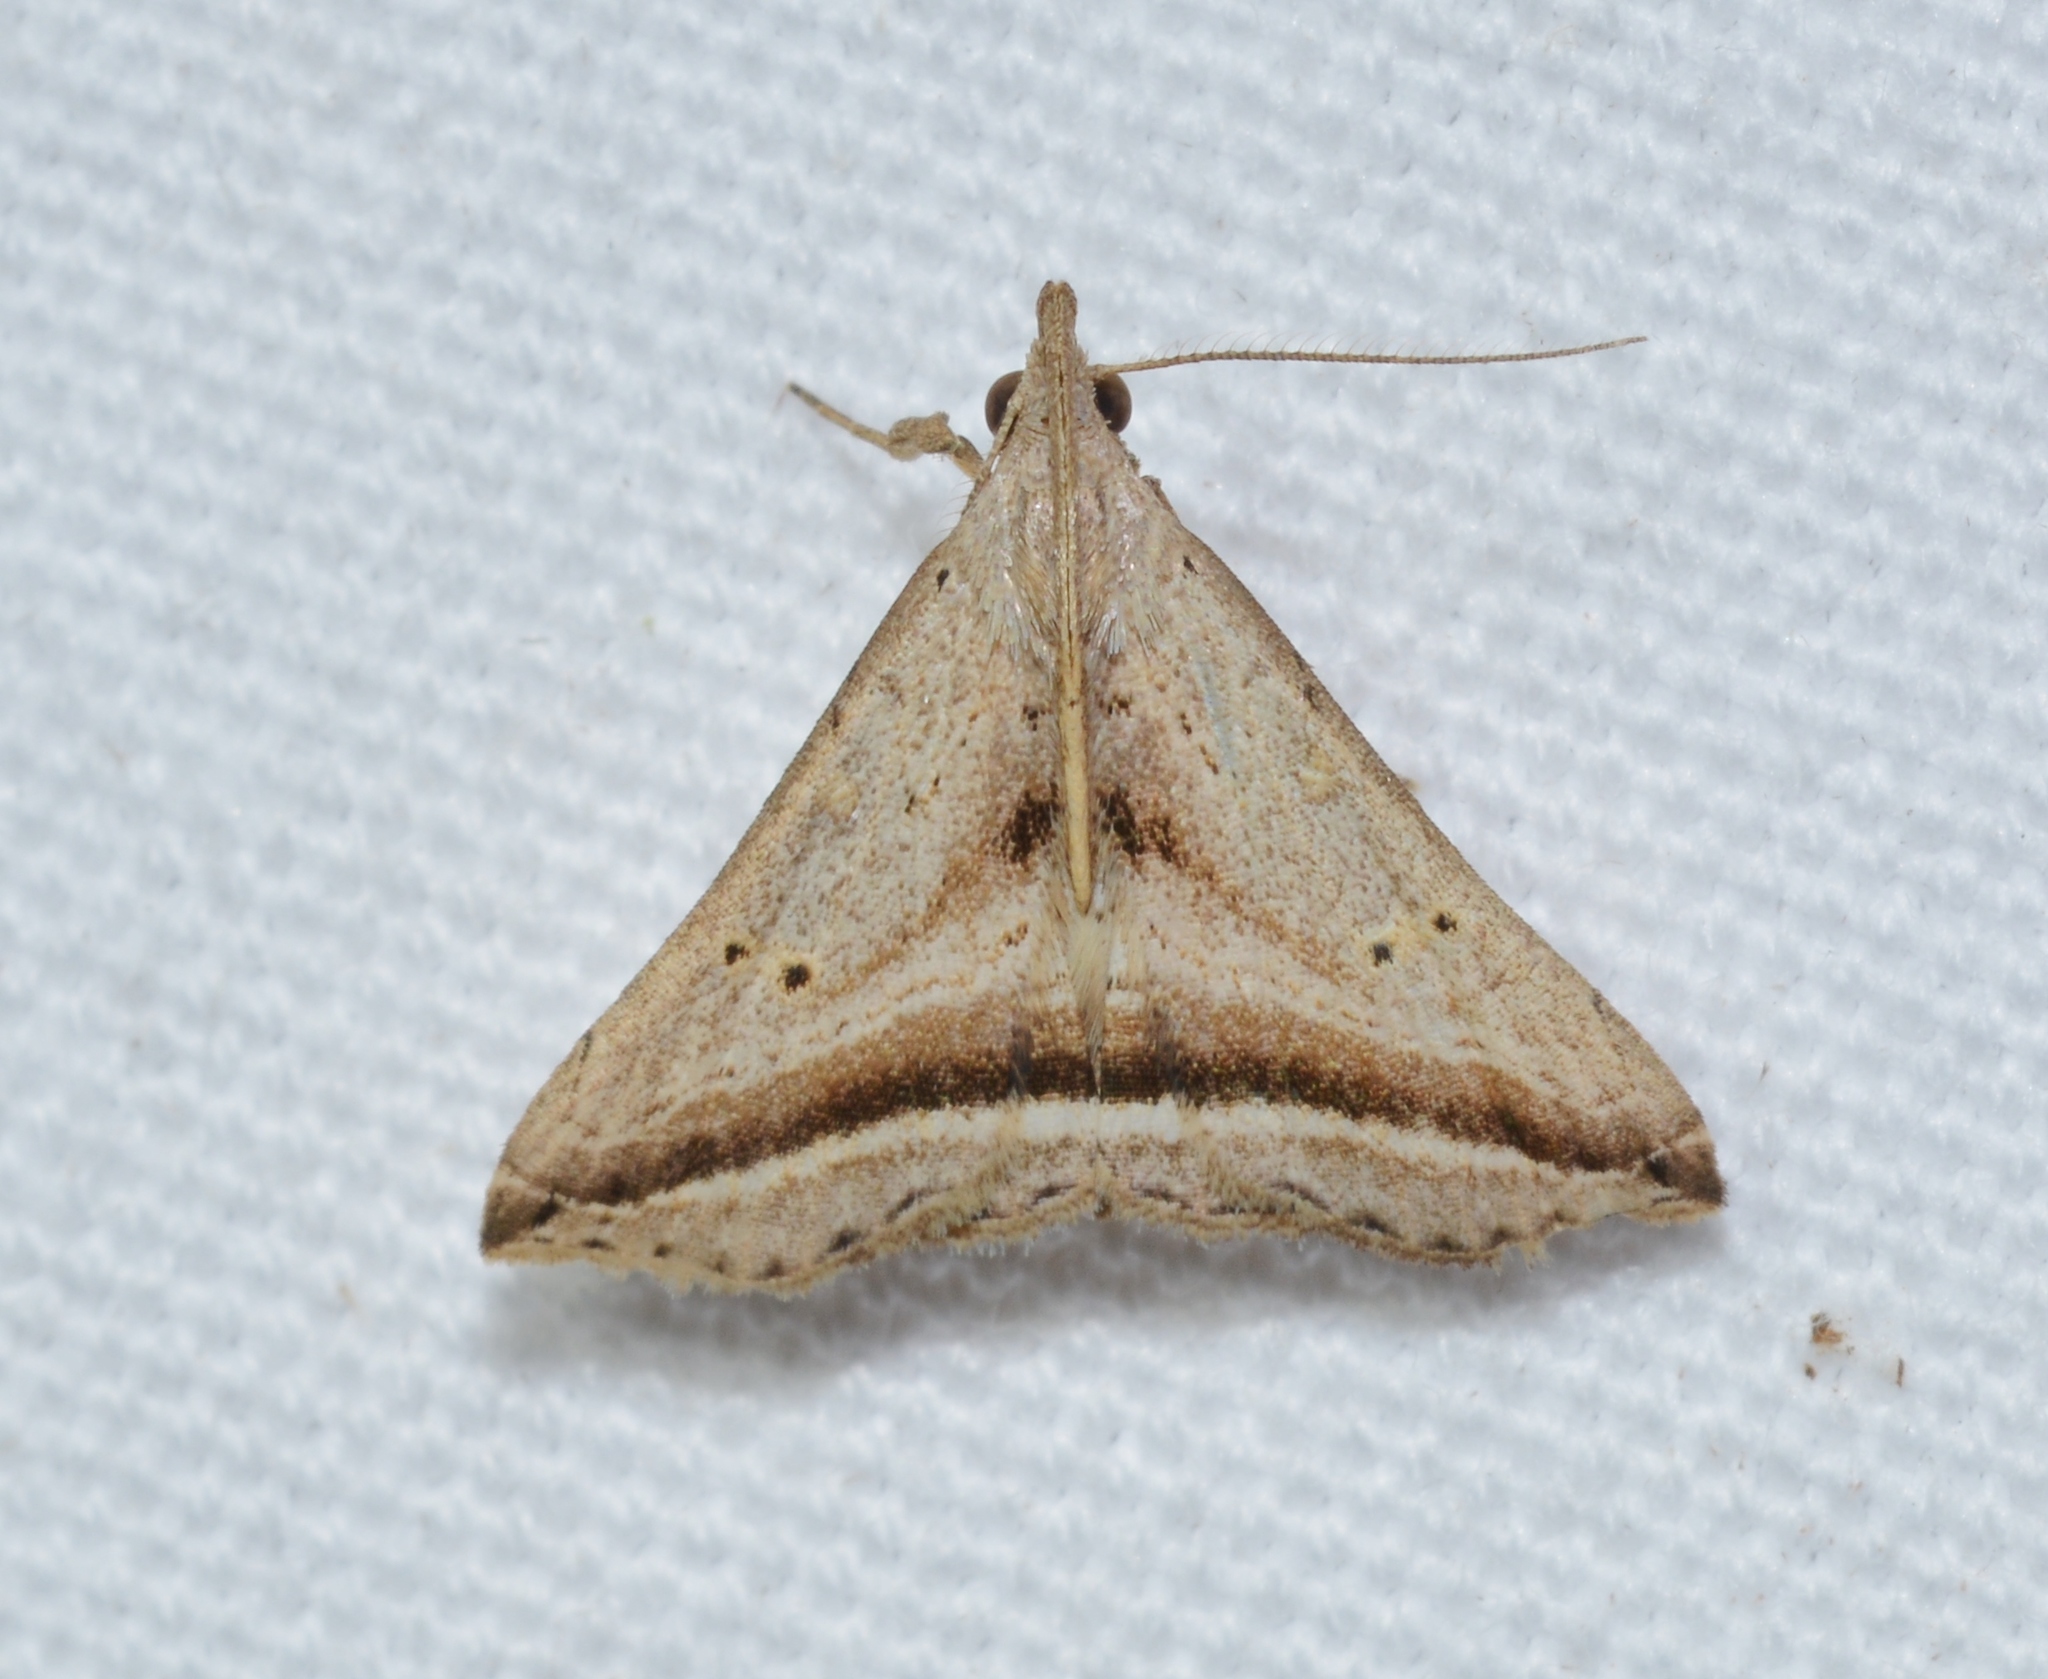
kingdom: Animalia
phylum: Arthropoda
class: Insecta
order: Lepidoptera
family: Erebidae
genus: Charmodia
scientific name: Charmodia vectis
